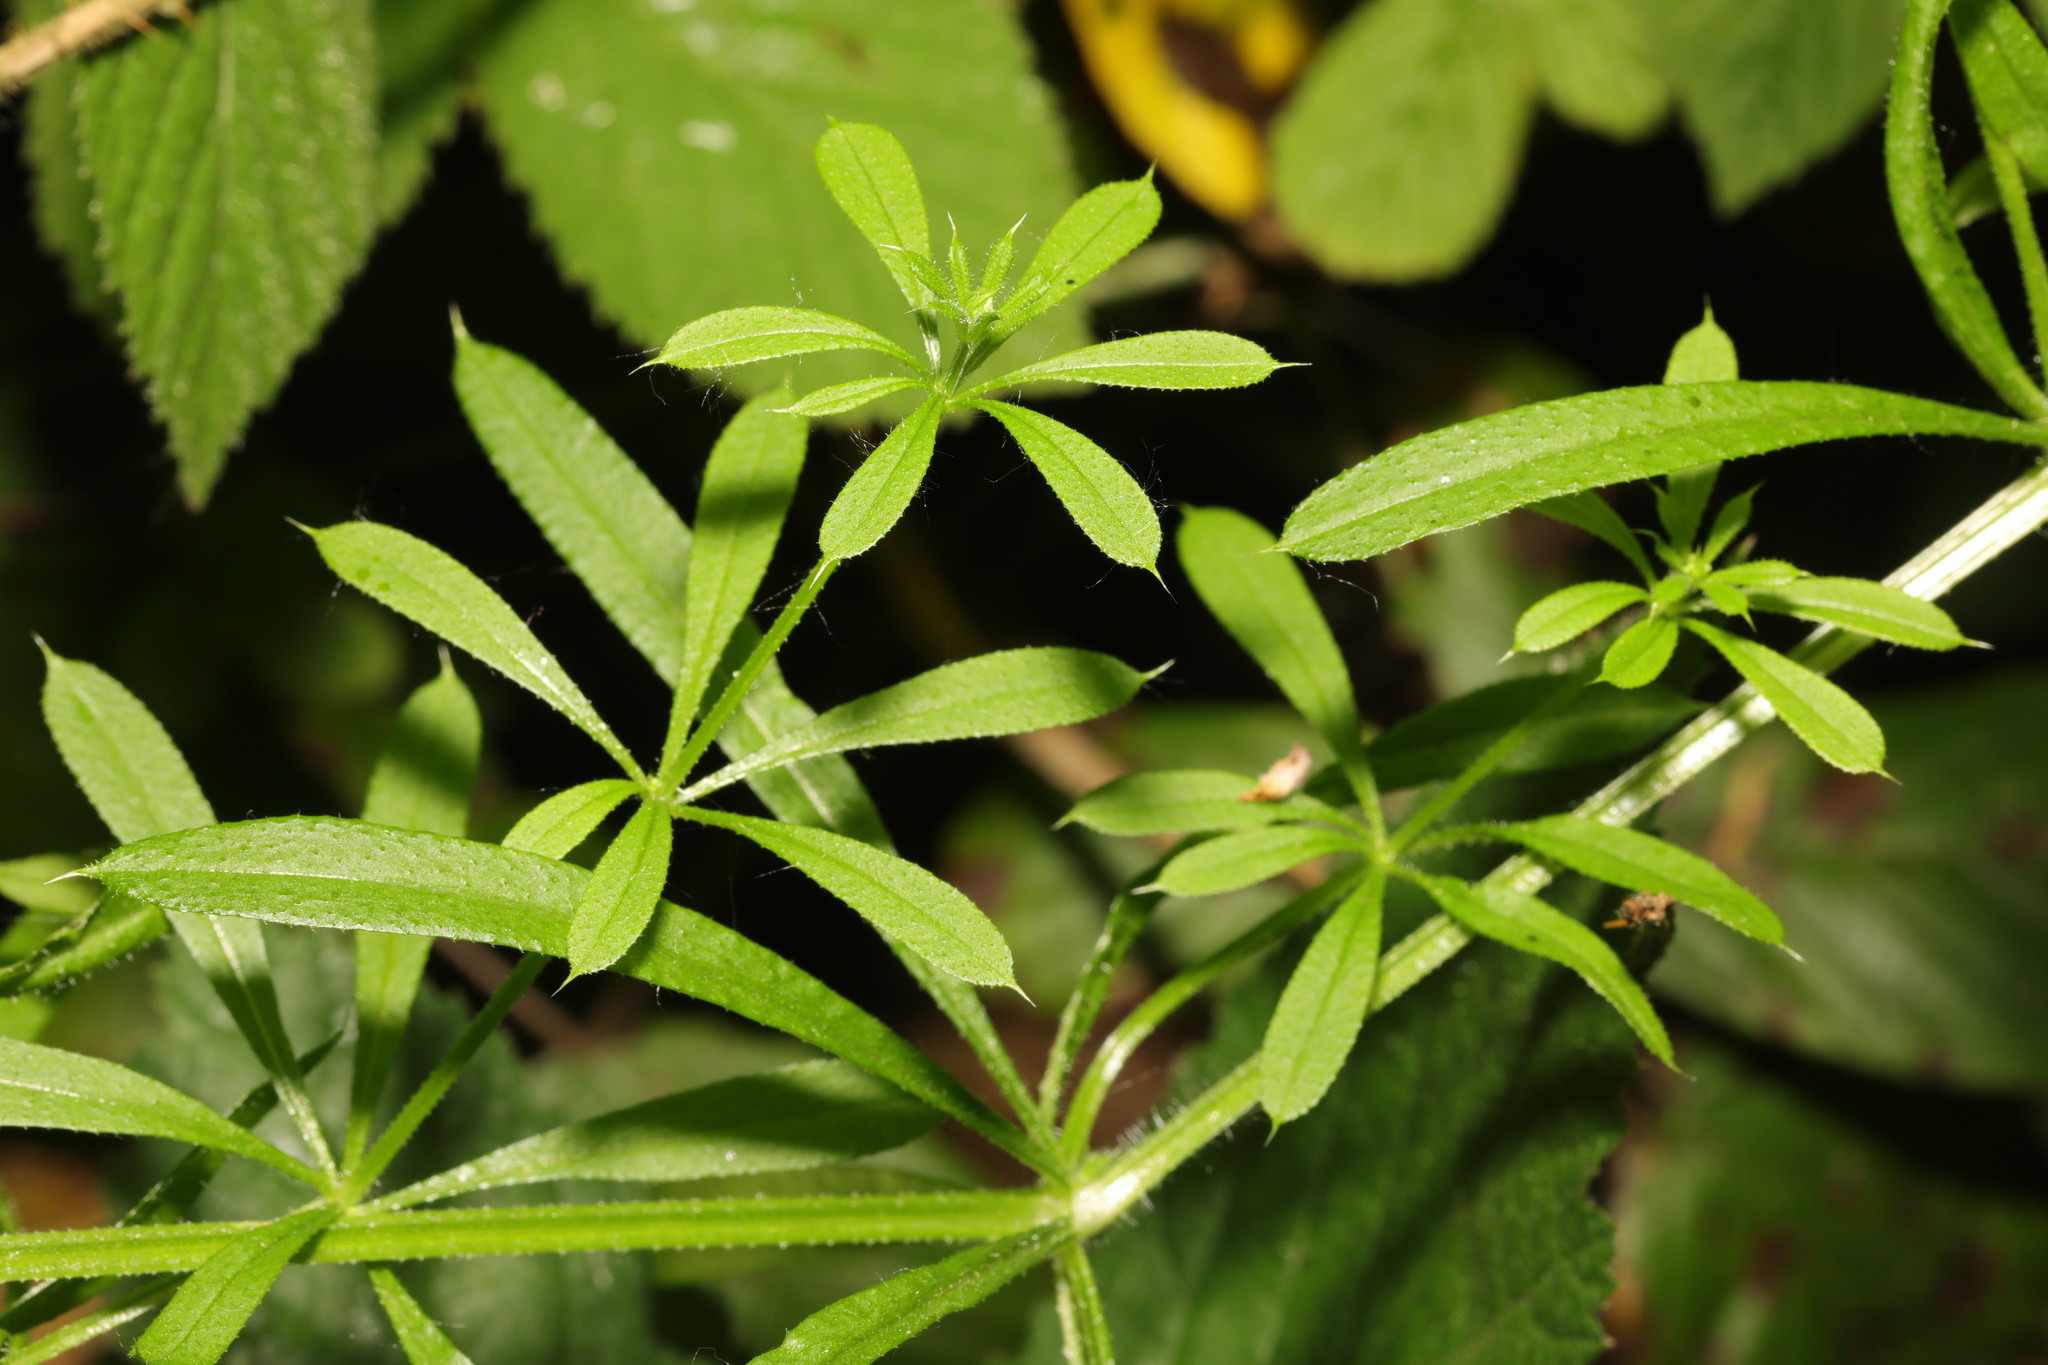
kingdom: Plantae
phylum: Tracheophyta
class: Magnoliopsida
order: Gentianales
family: Rubiaceae
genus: Galium
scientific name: Galium aparine
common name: Cleavers
